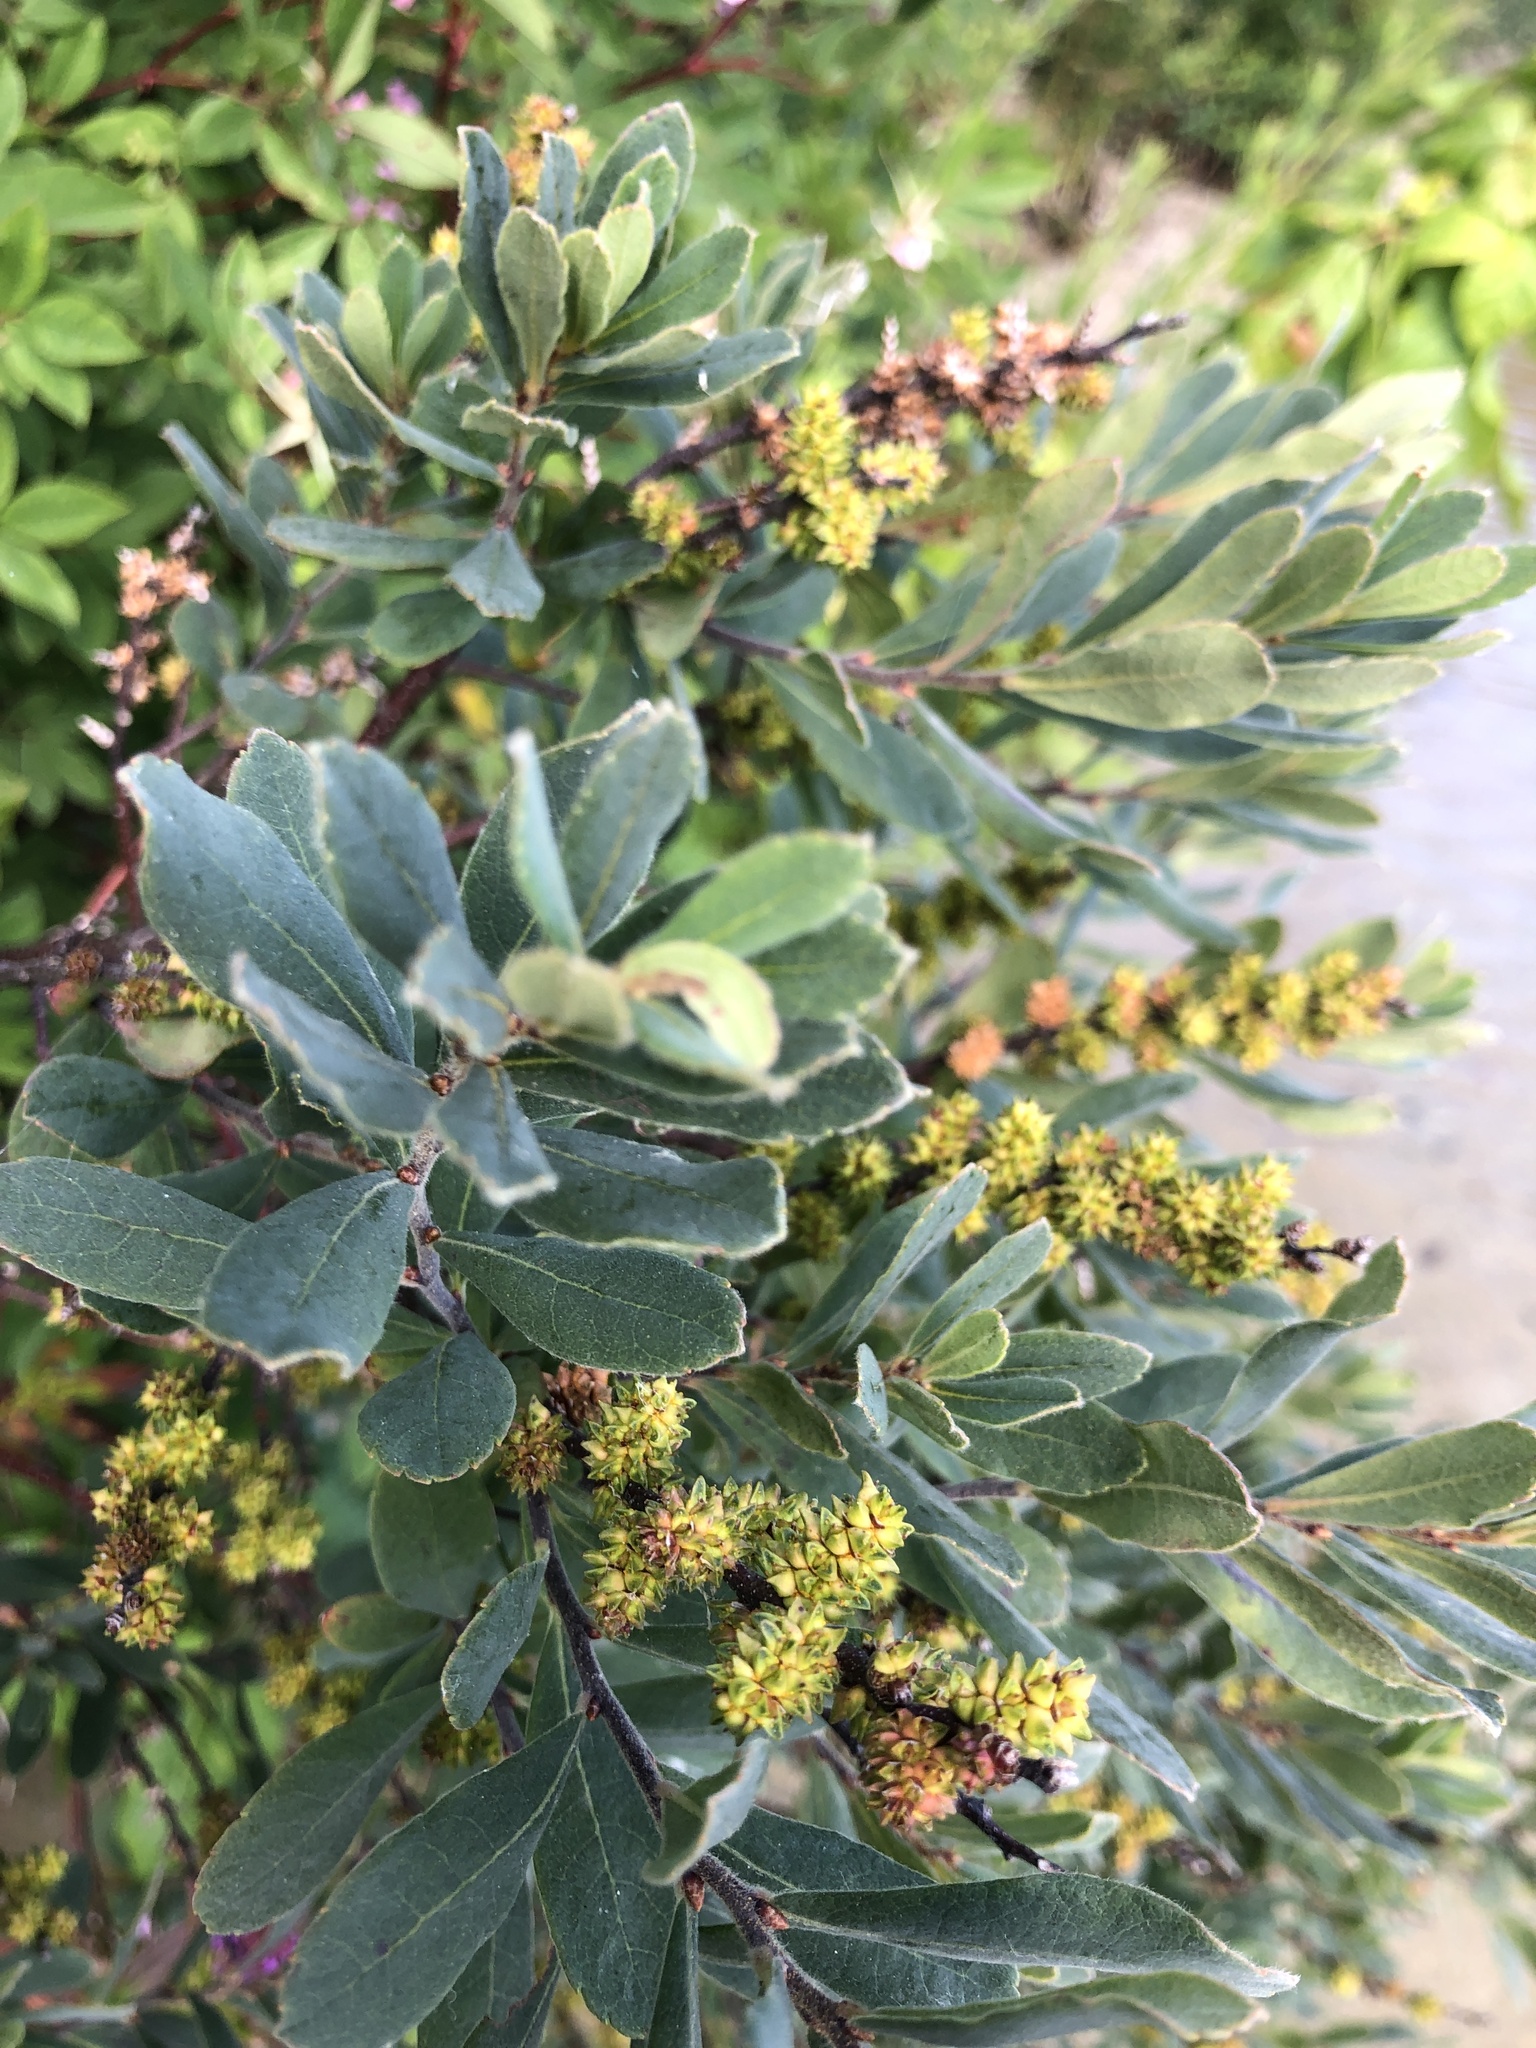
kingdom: Plantae
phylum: Tracheophyta
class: Magnoliopsida
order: Fagales
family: Myricaceae
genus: Myrica
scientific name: Myrica gale
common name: Sweet gale
